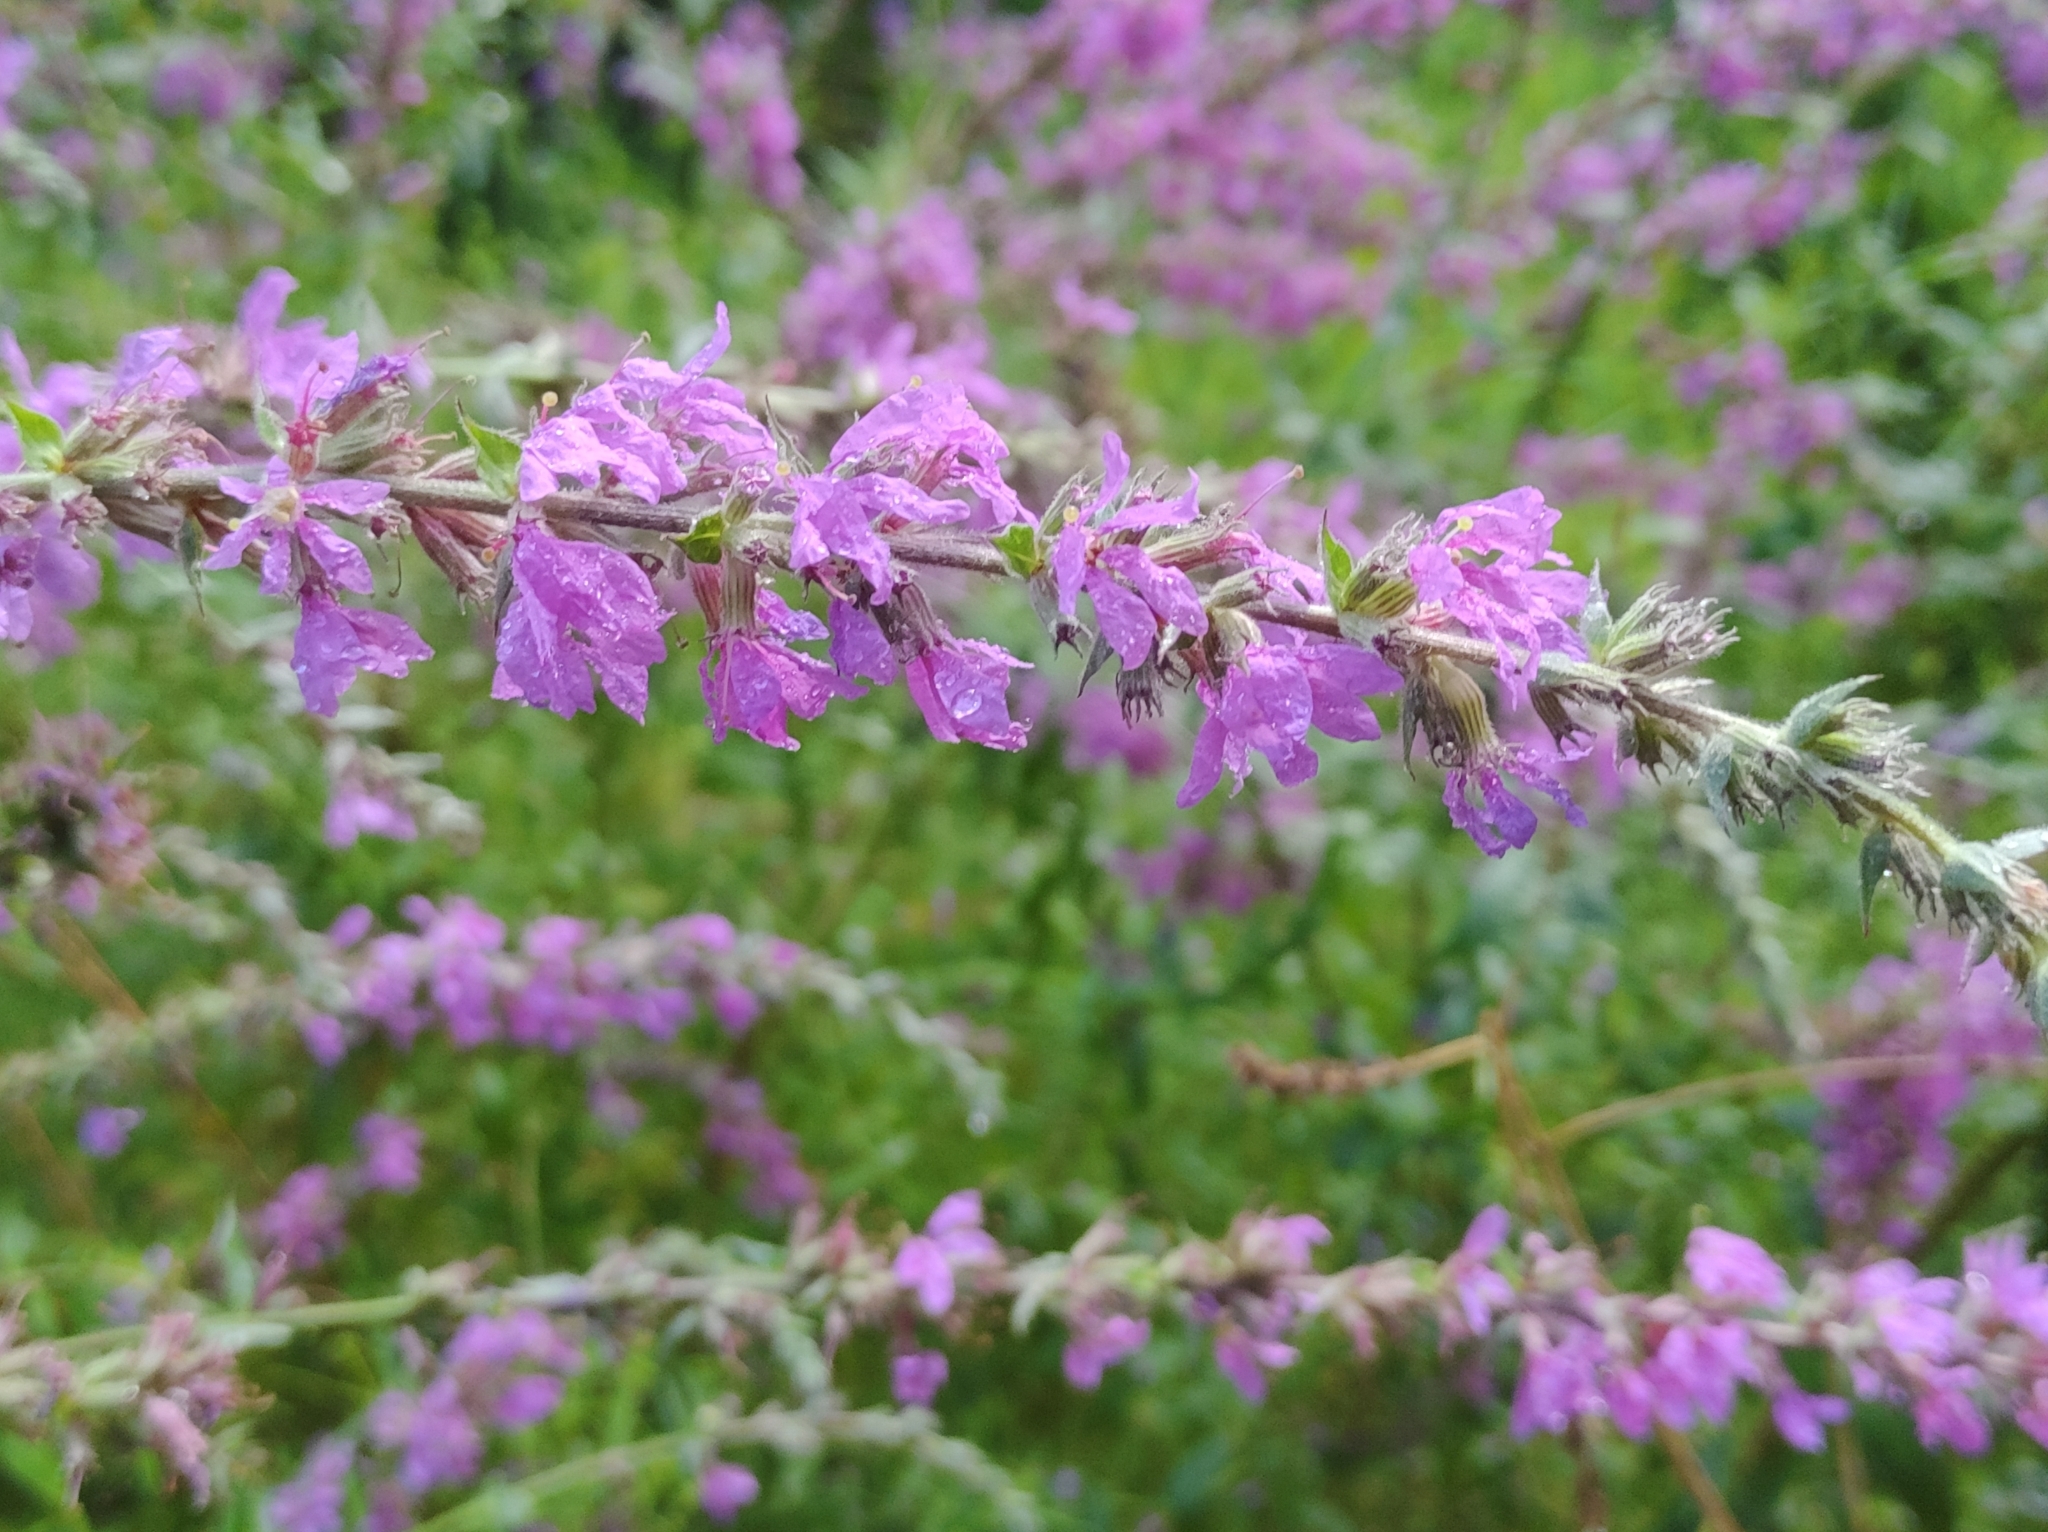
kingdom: Plantae
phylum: Tracheophyta
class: Magnoliopsida
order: Myrtales
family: Lythraceae
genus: Lythrum
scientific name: Lythrum salicaria
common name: Purple loosestrife
